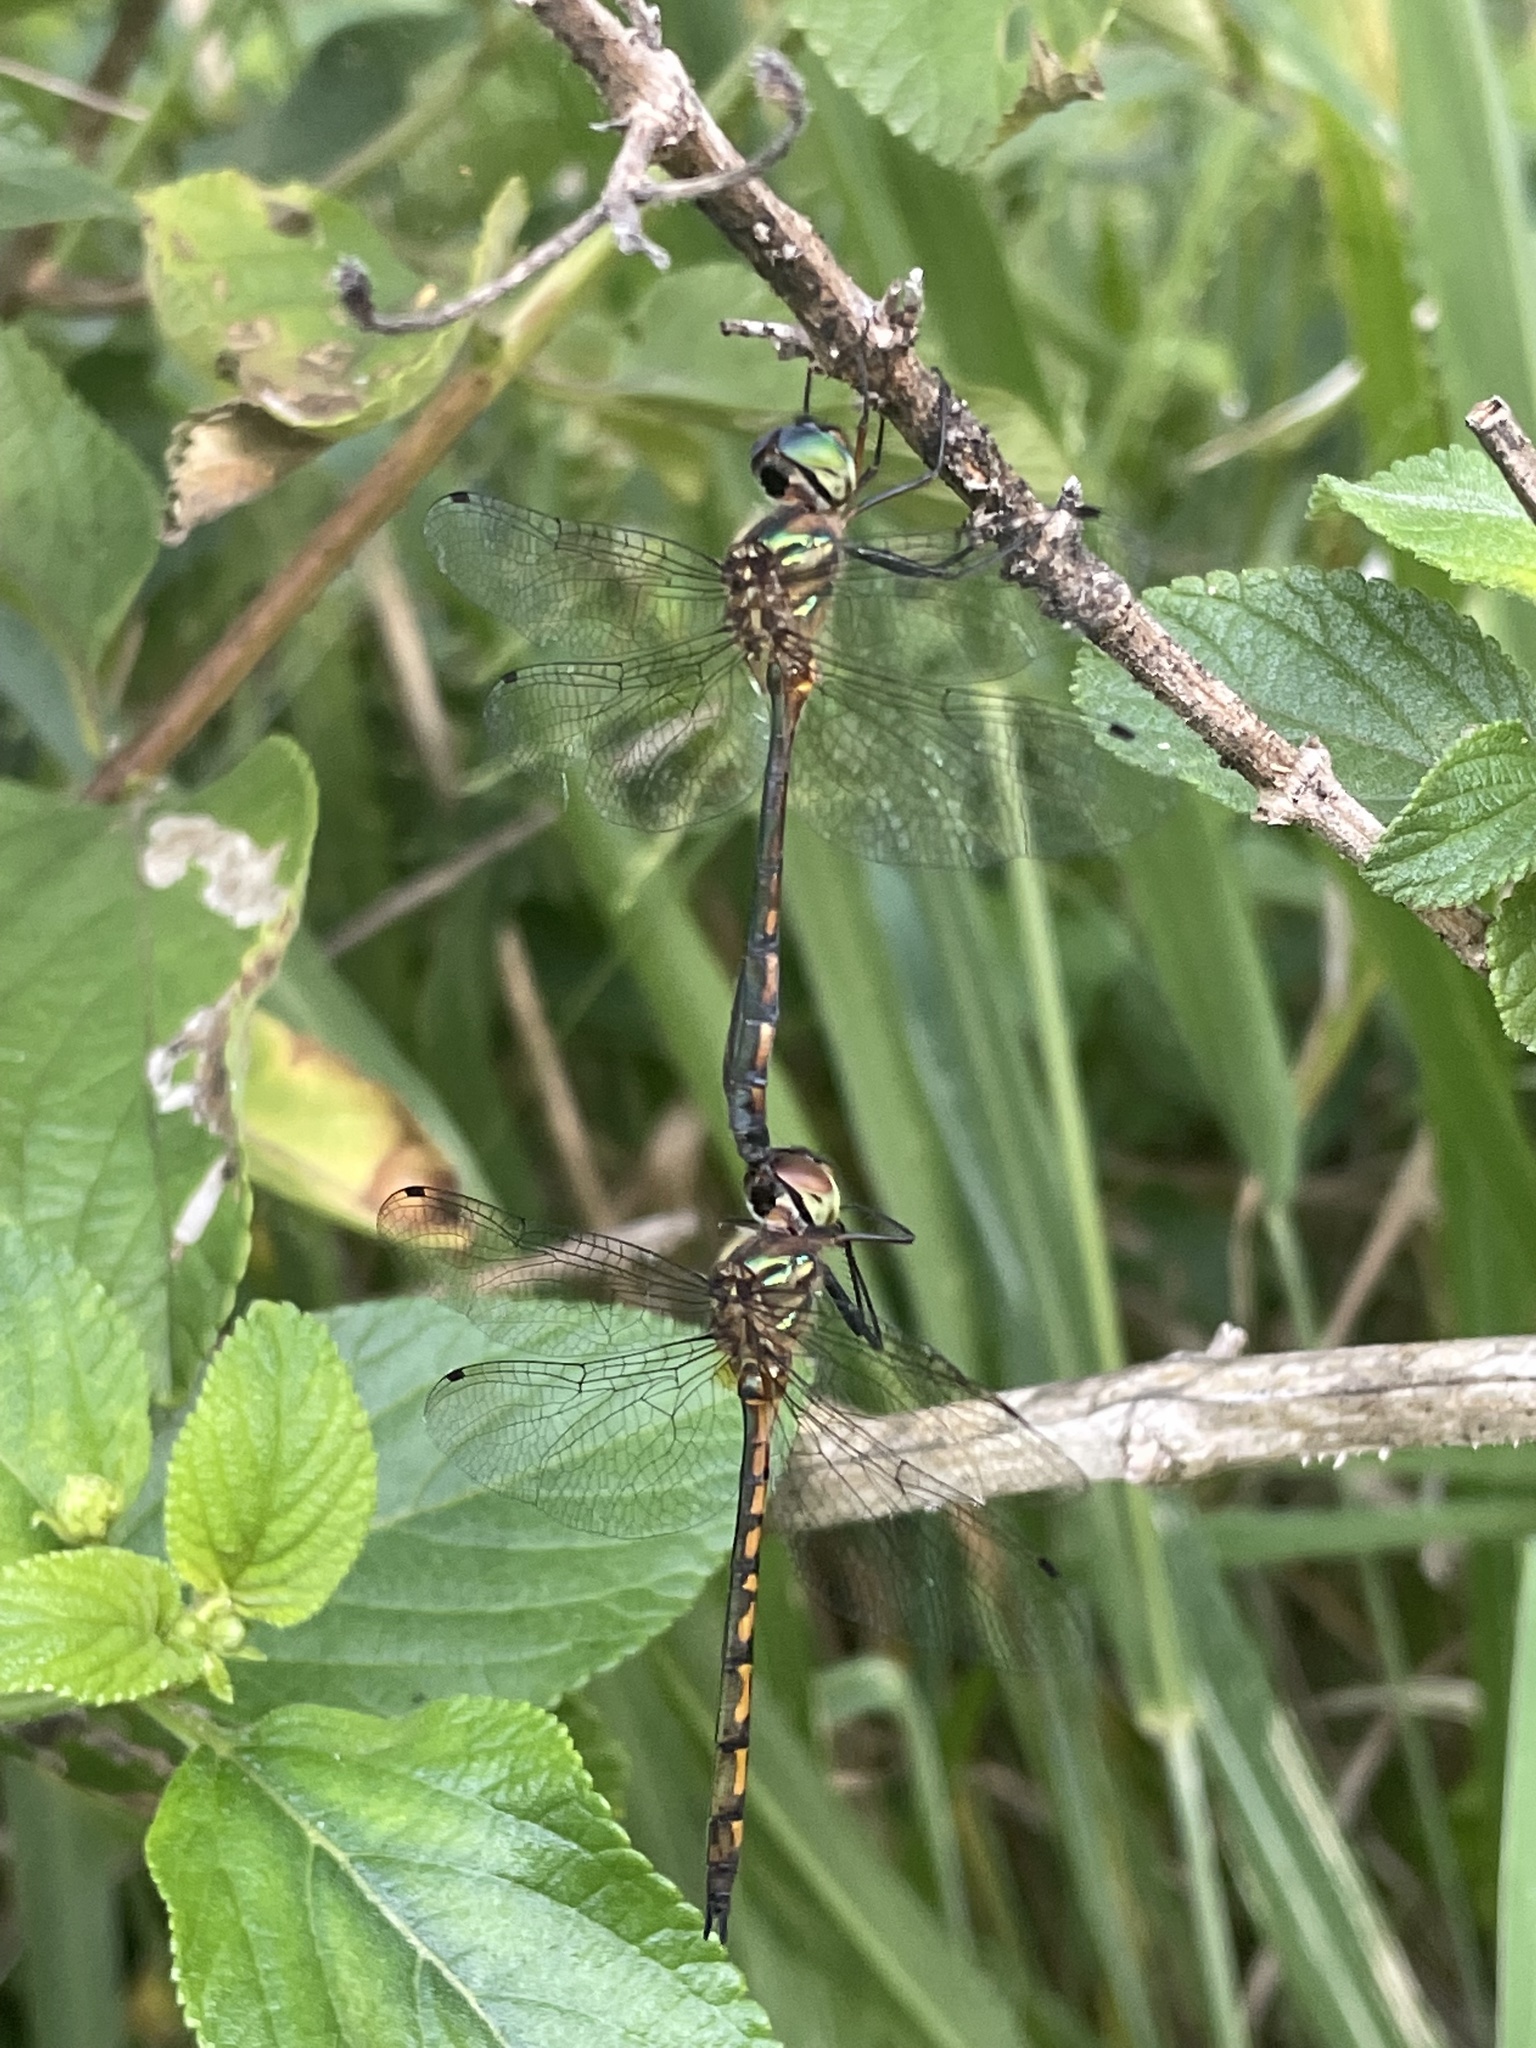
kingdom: Animalia
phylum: Arthropoda
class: Insecta
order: Odonata
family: Corduliidae
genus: Hemicordulia
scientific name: Hemicordulia continentalis
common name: Fat-bellied emerald
